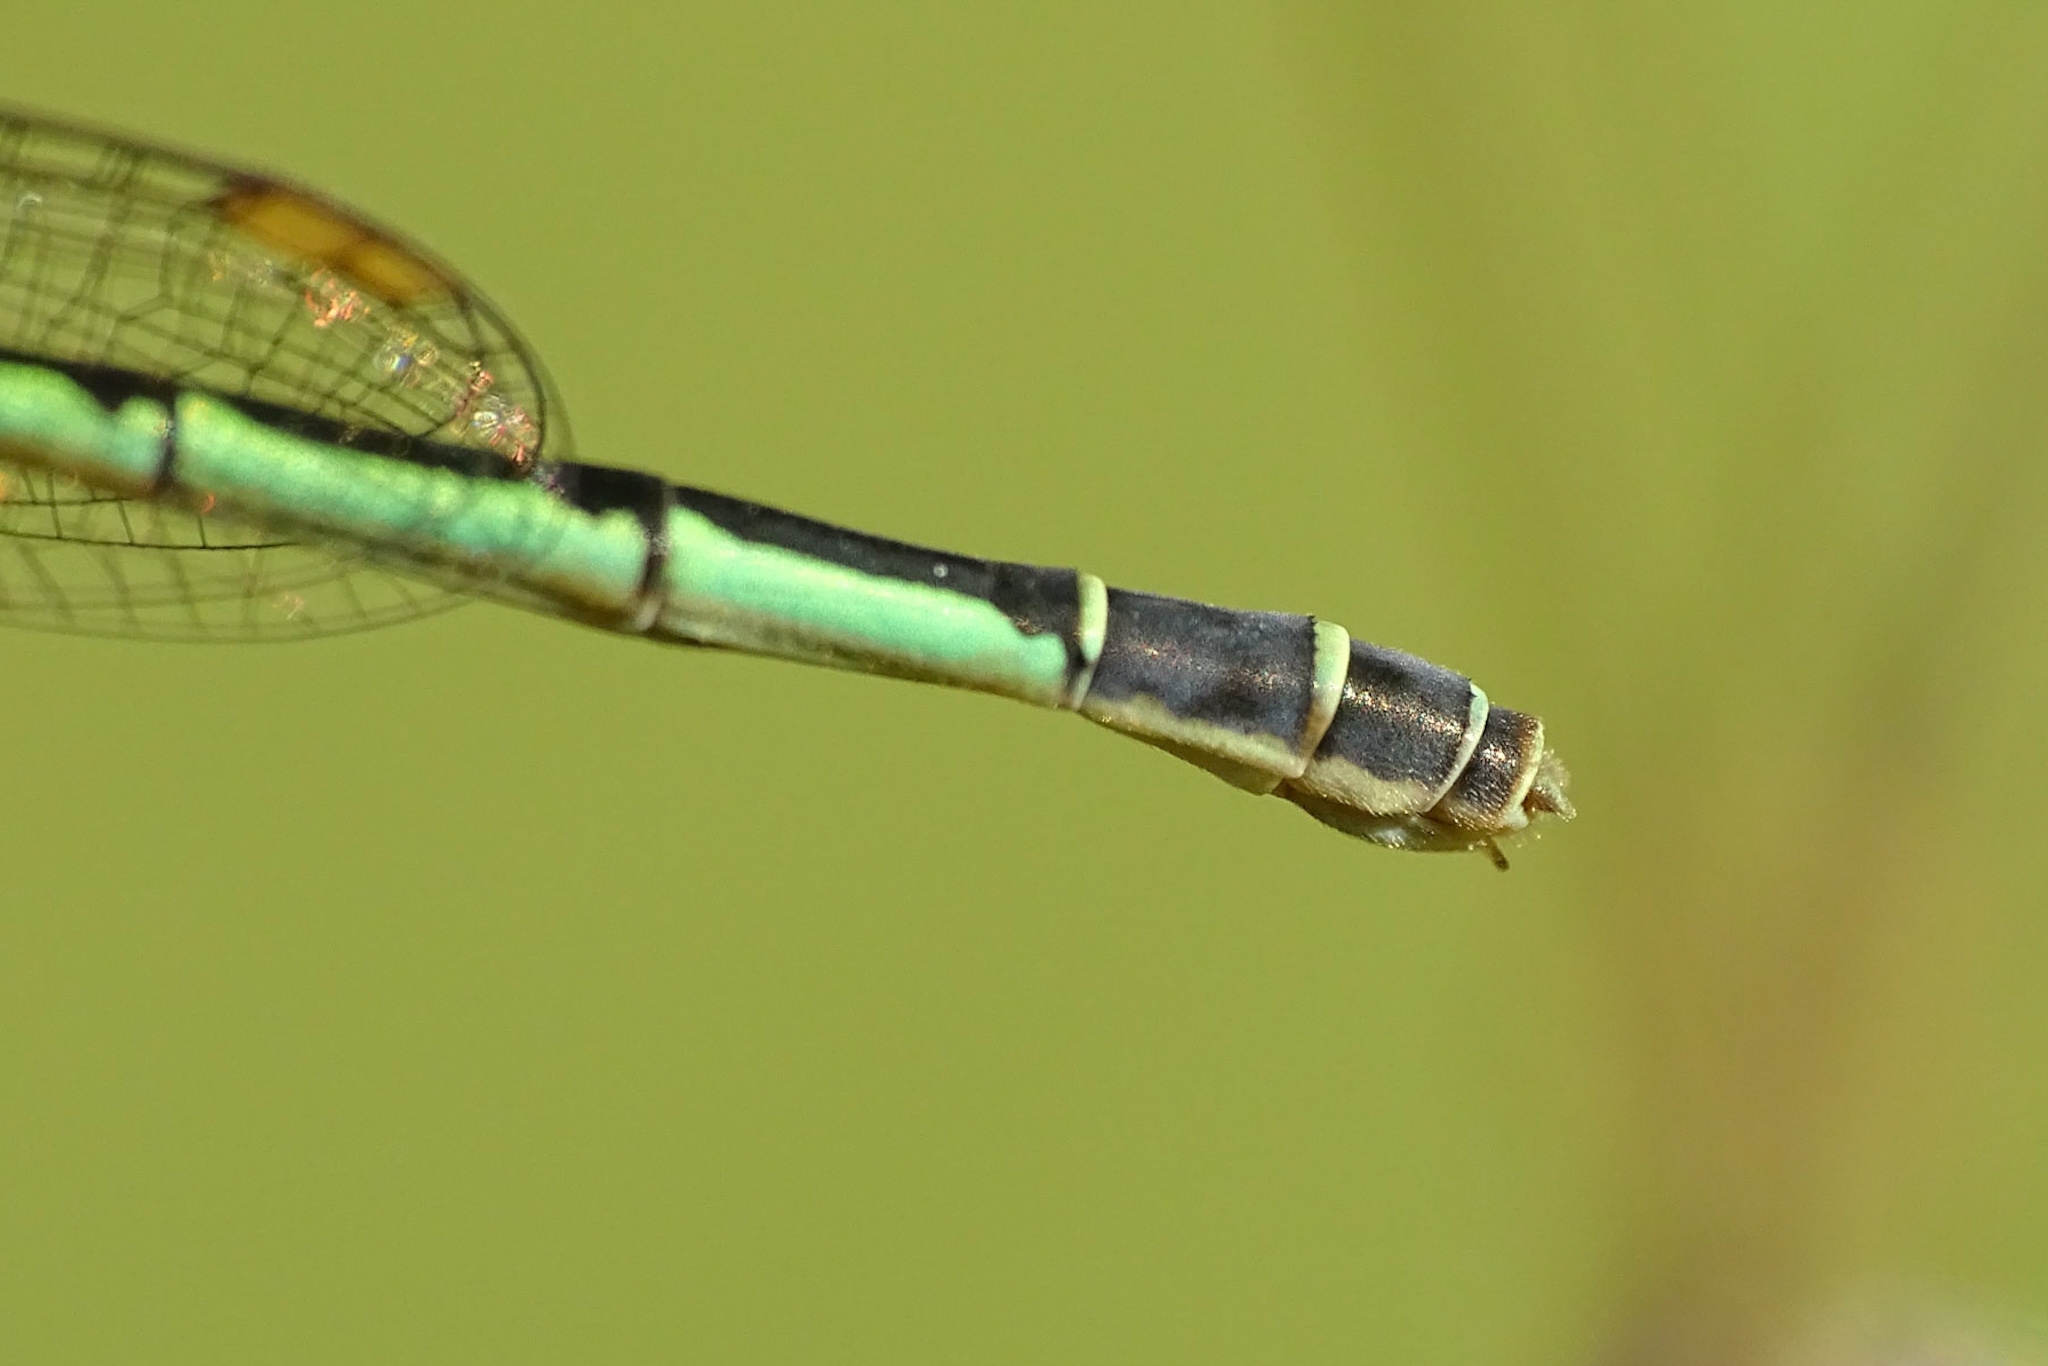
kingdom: Animalia
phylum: Arthropoda
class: Insecta
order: Odonata
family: Coenagrionidae
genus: Agriocnemis
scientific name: Agriocnemis keralensis
